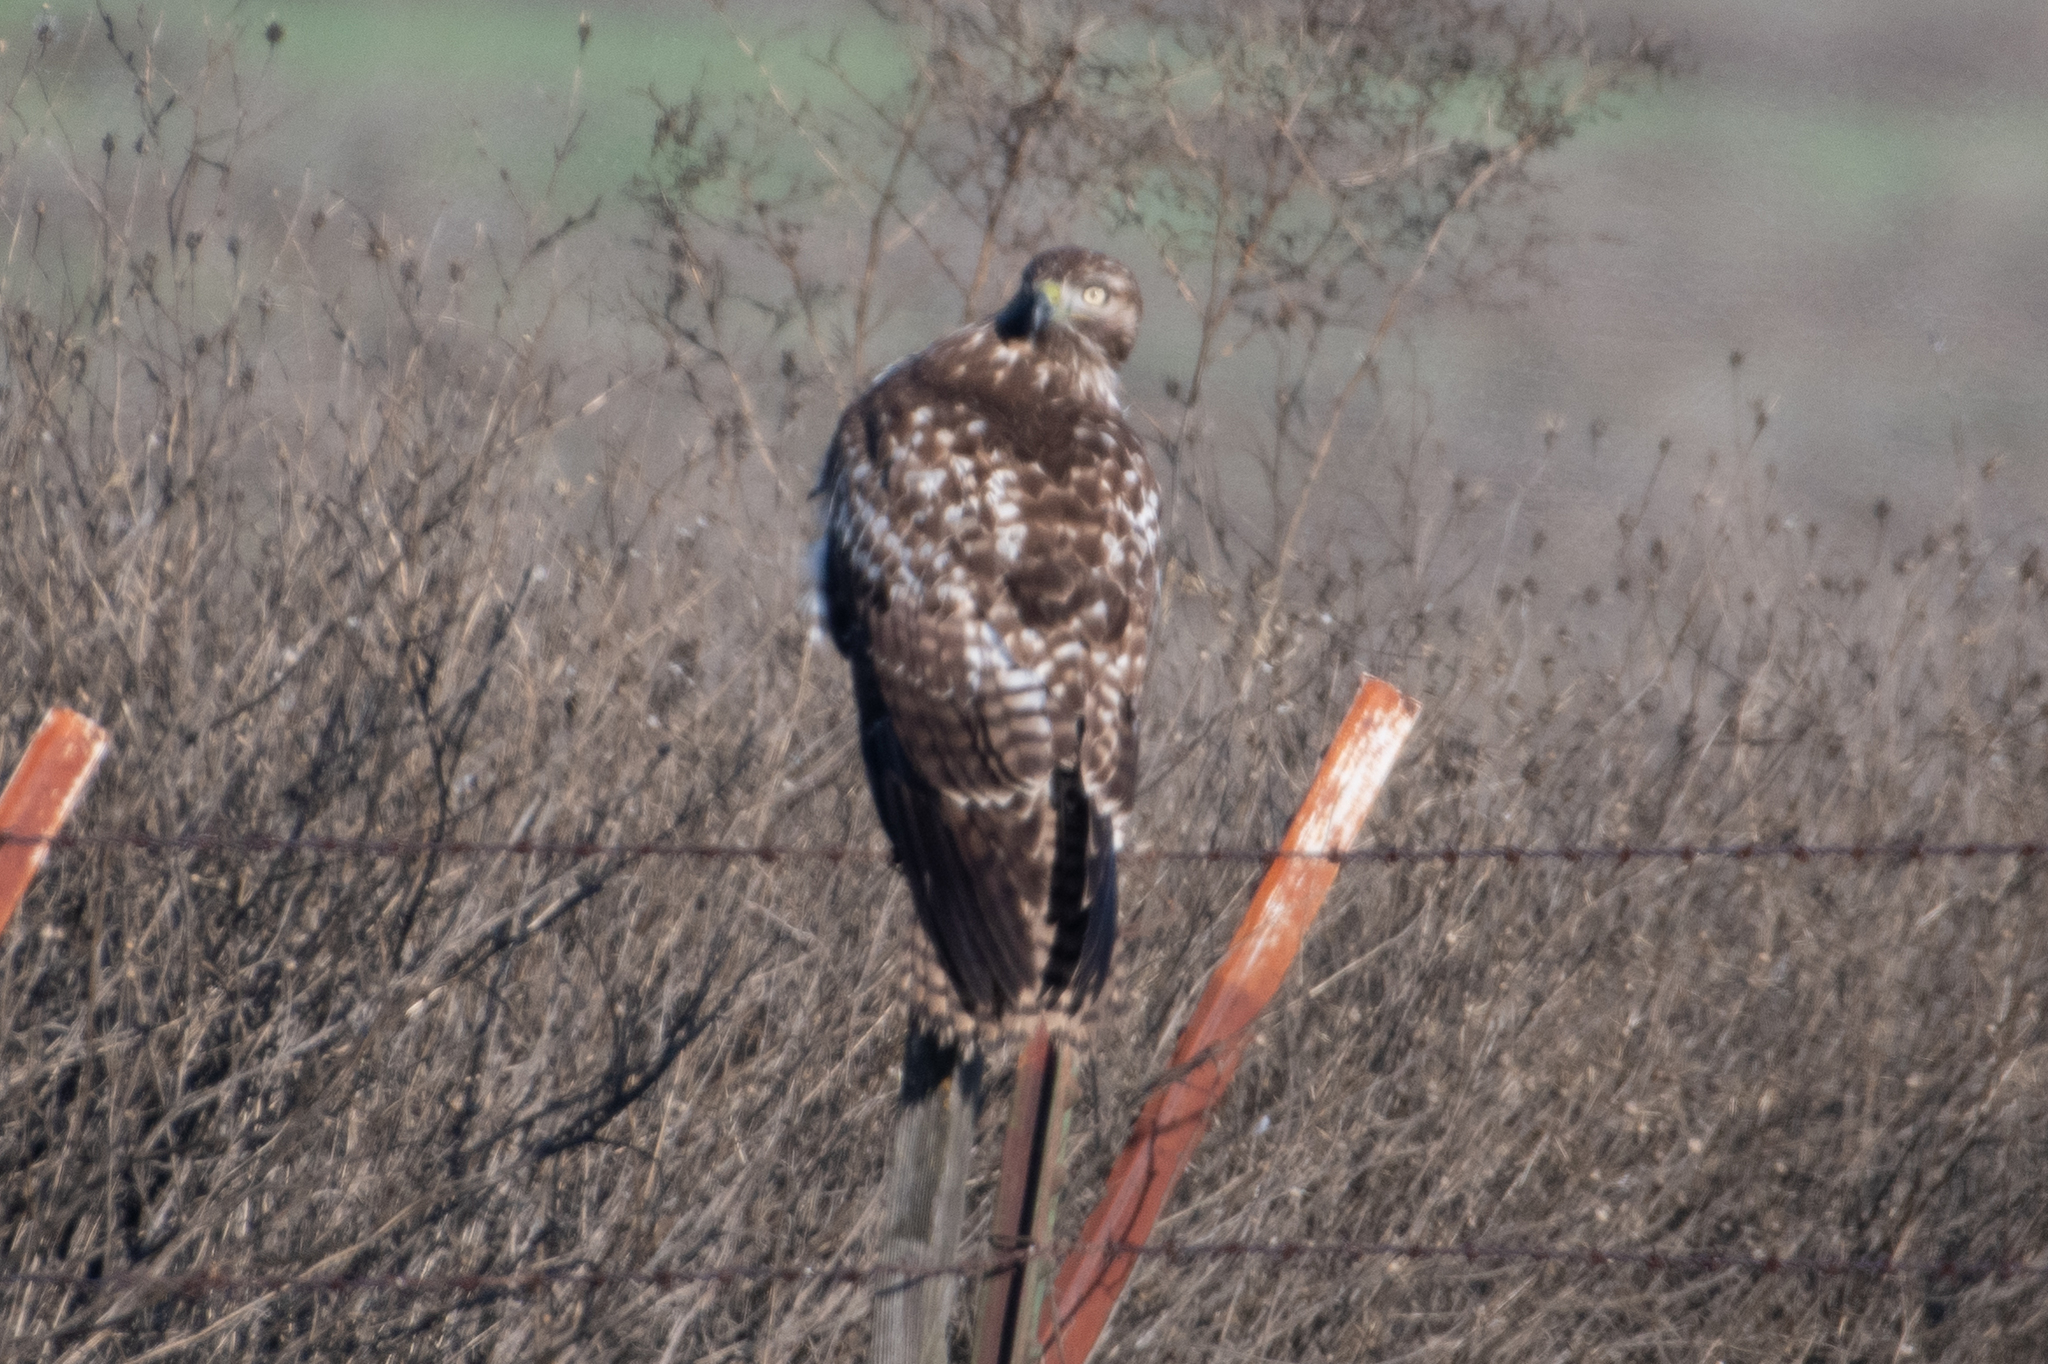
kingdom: Animalia
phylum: Chordata
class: Aves
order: Accipitriformes
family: Accipitridae
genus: Buteo
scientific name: Buteo jamaicensis
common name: Red-tailed hawk
